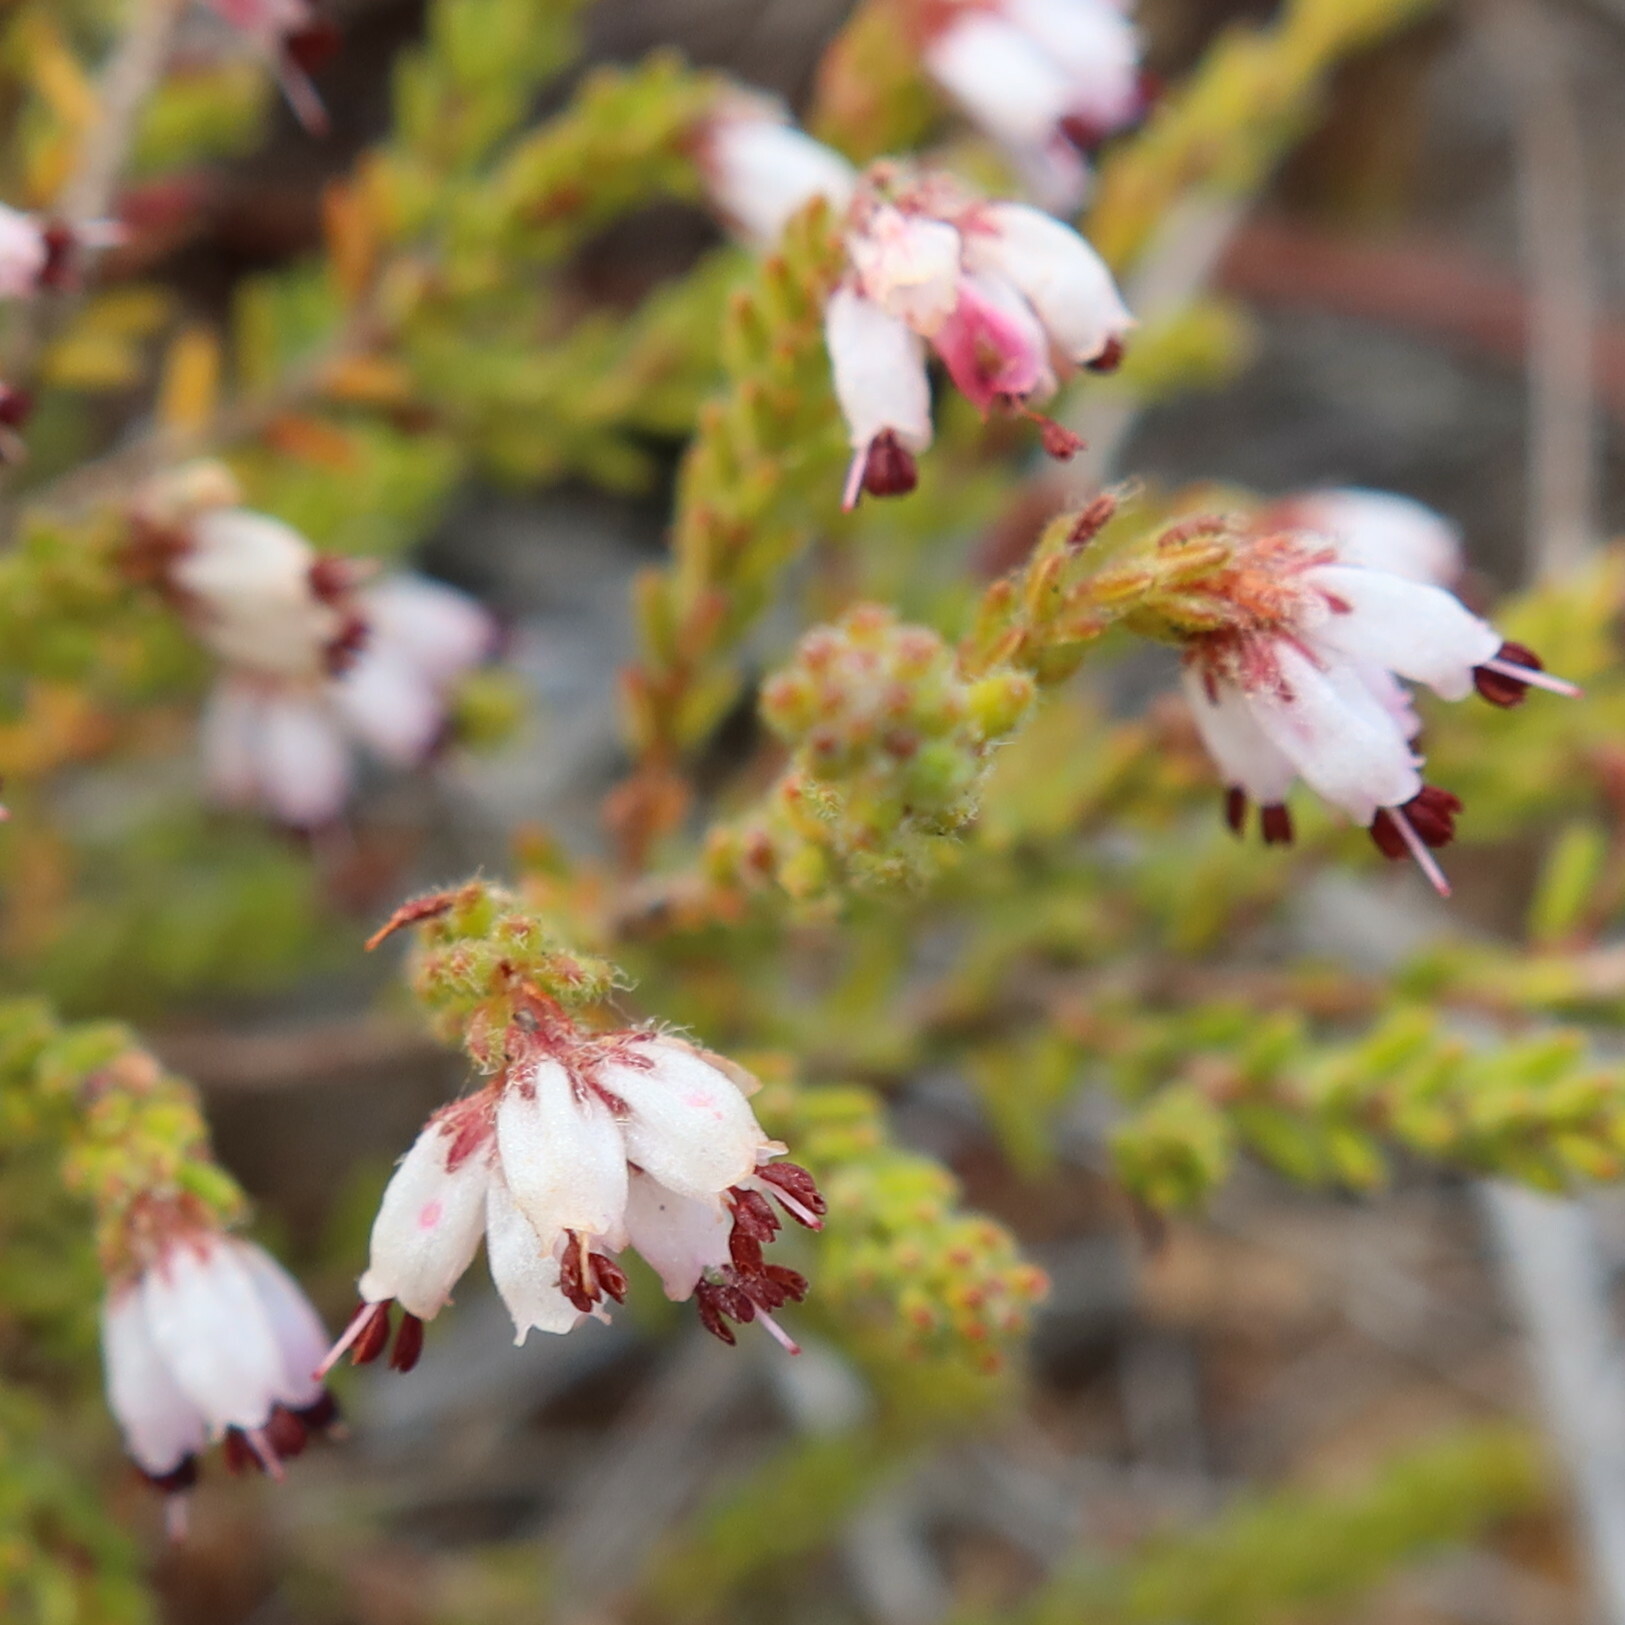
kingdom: Plantae
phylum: Tracheophyta
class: Magnoliopsida
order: Ericales
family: Ericaceae
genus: Erica
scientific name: Erica ericoides
